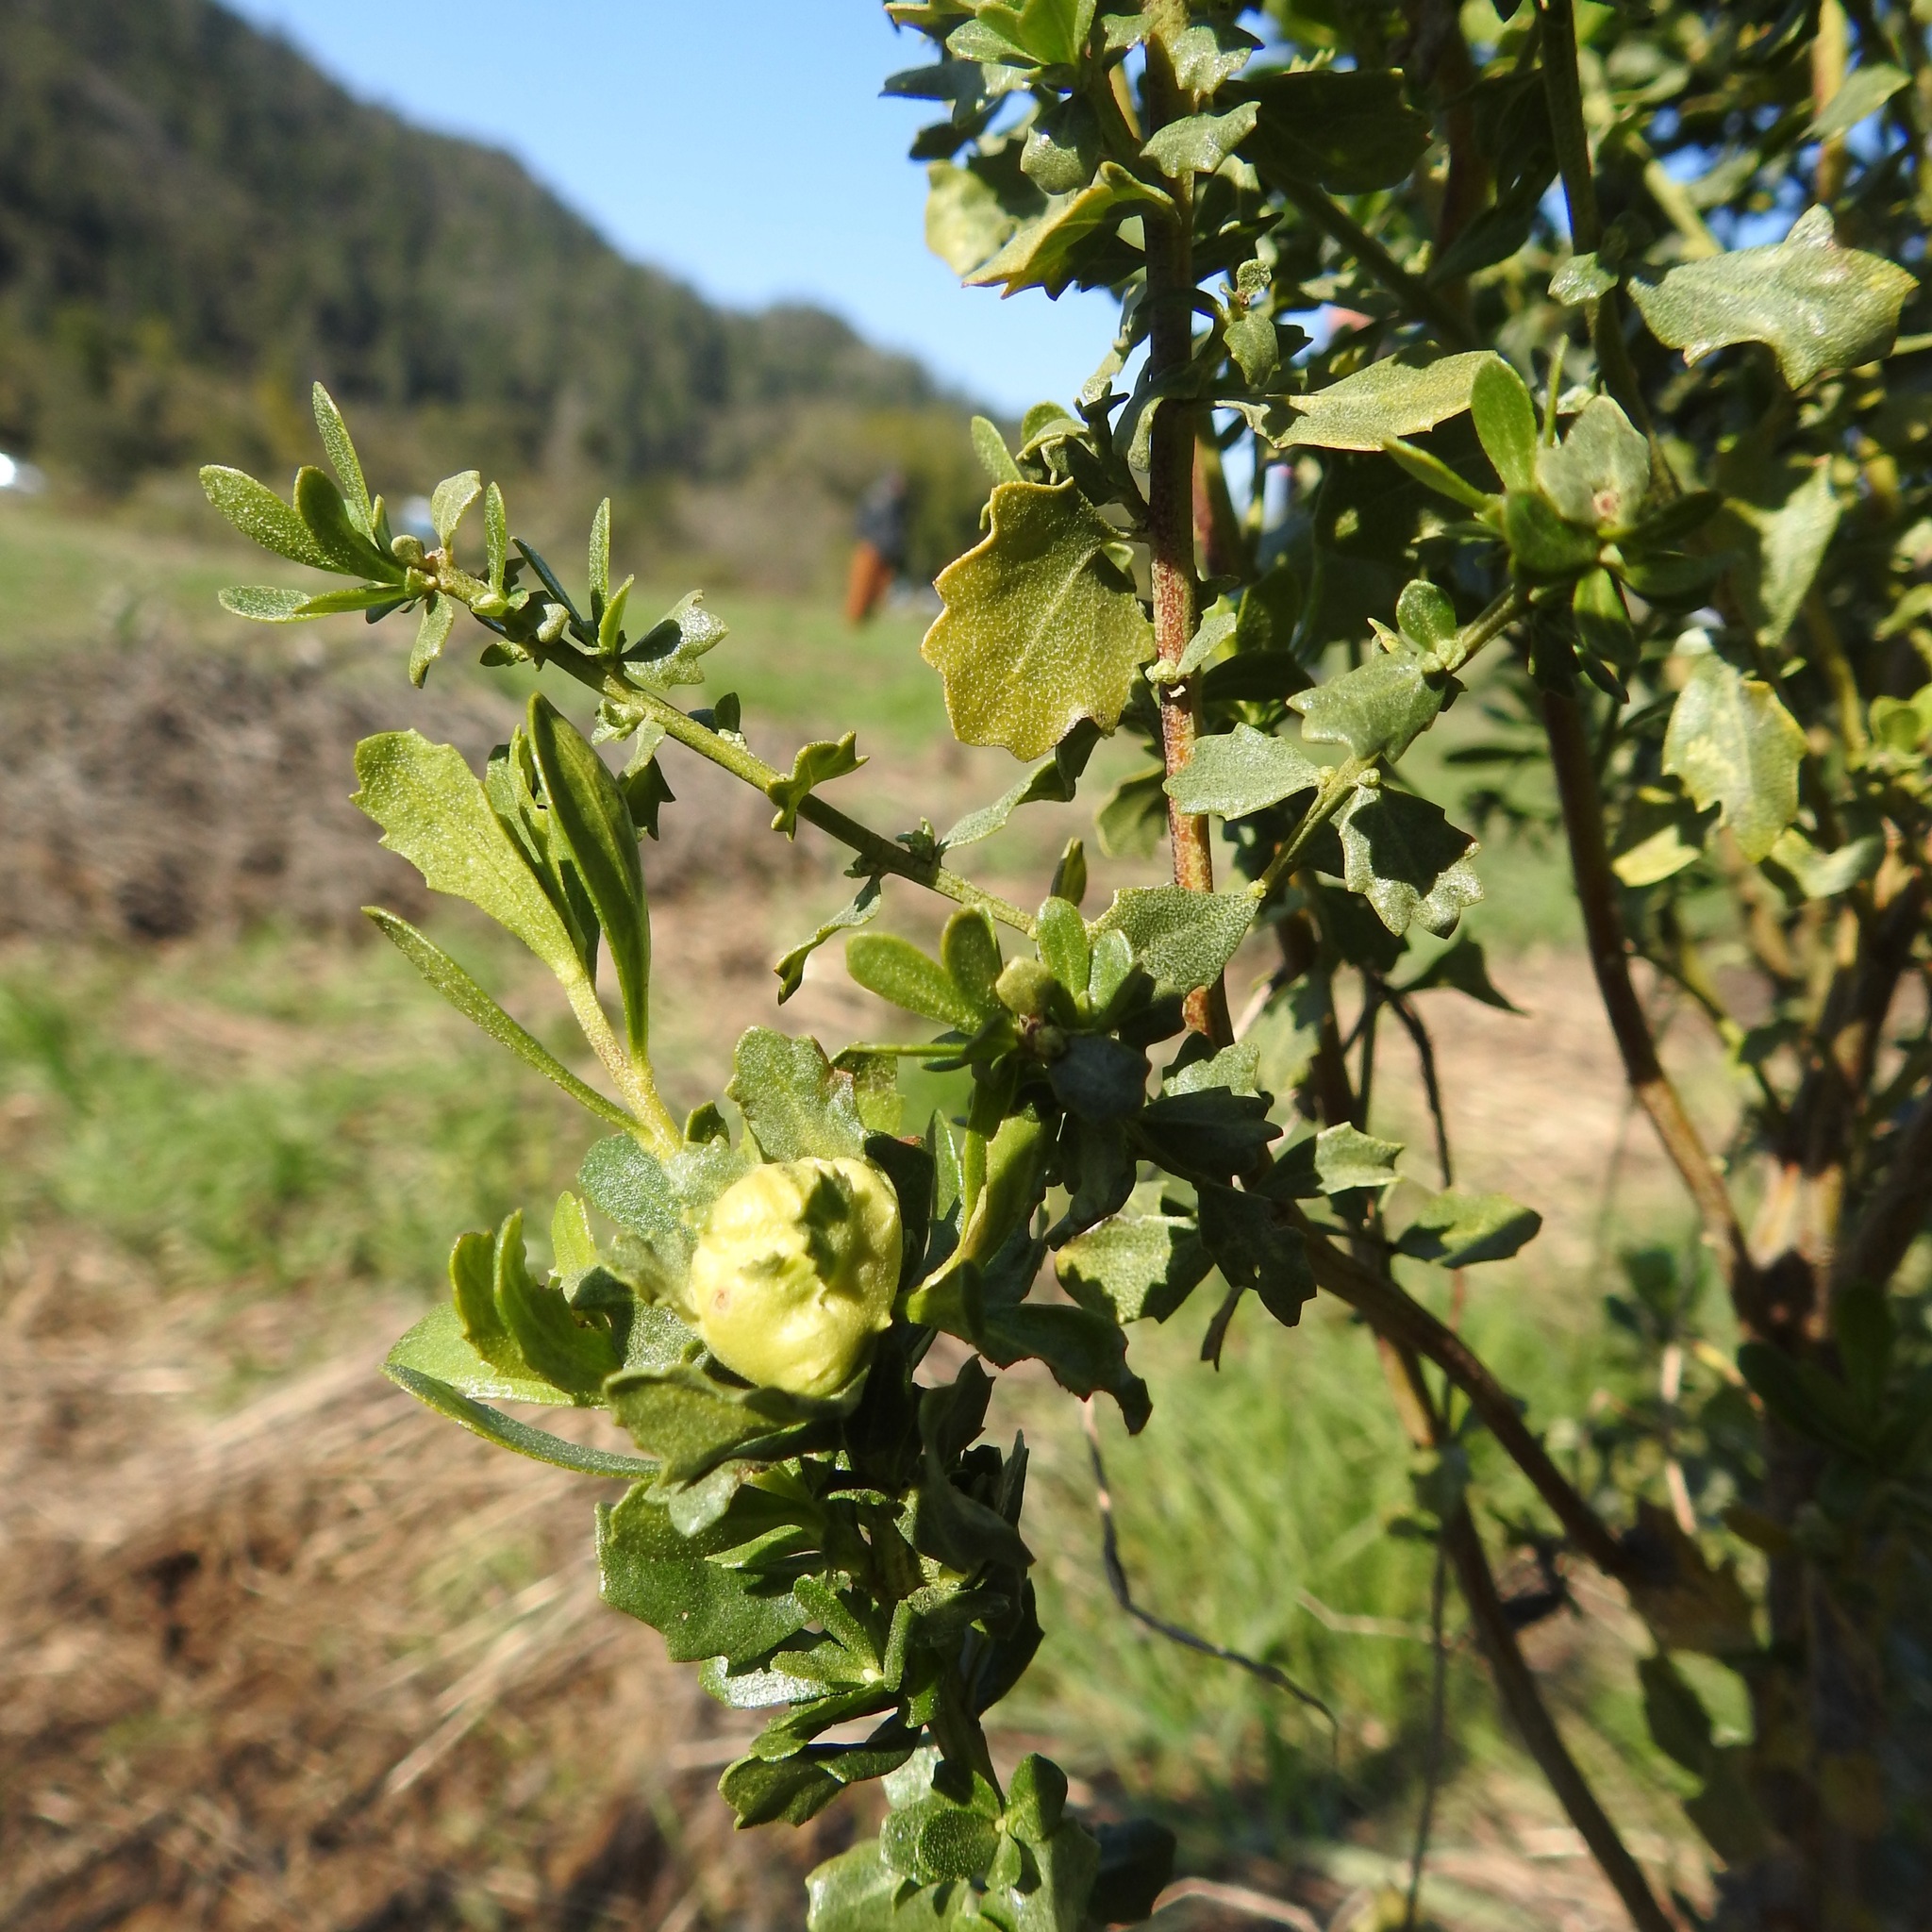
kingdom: Animalia
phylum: Arthropoda
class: Insecta
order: Diptera
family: Cecidomyiidae
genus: Rhopalomyia
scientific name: Rhopalomyia californica
